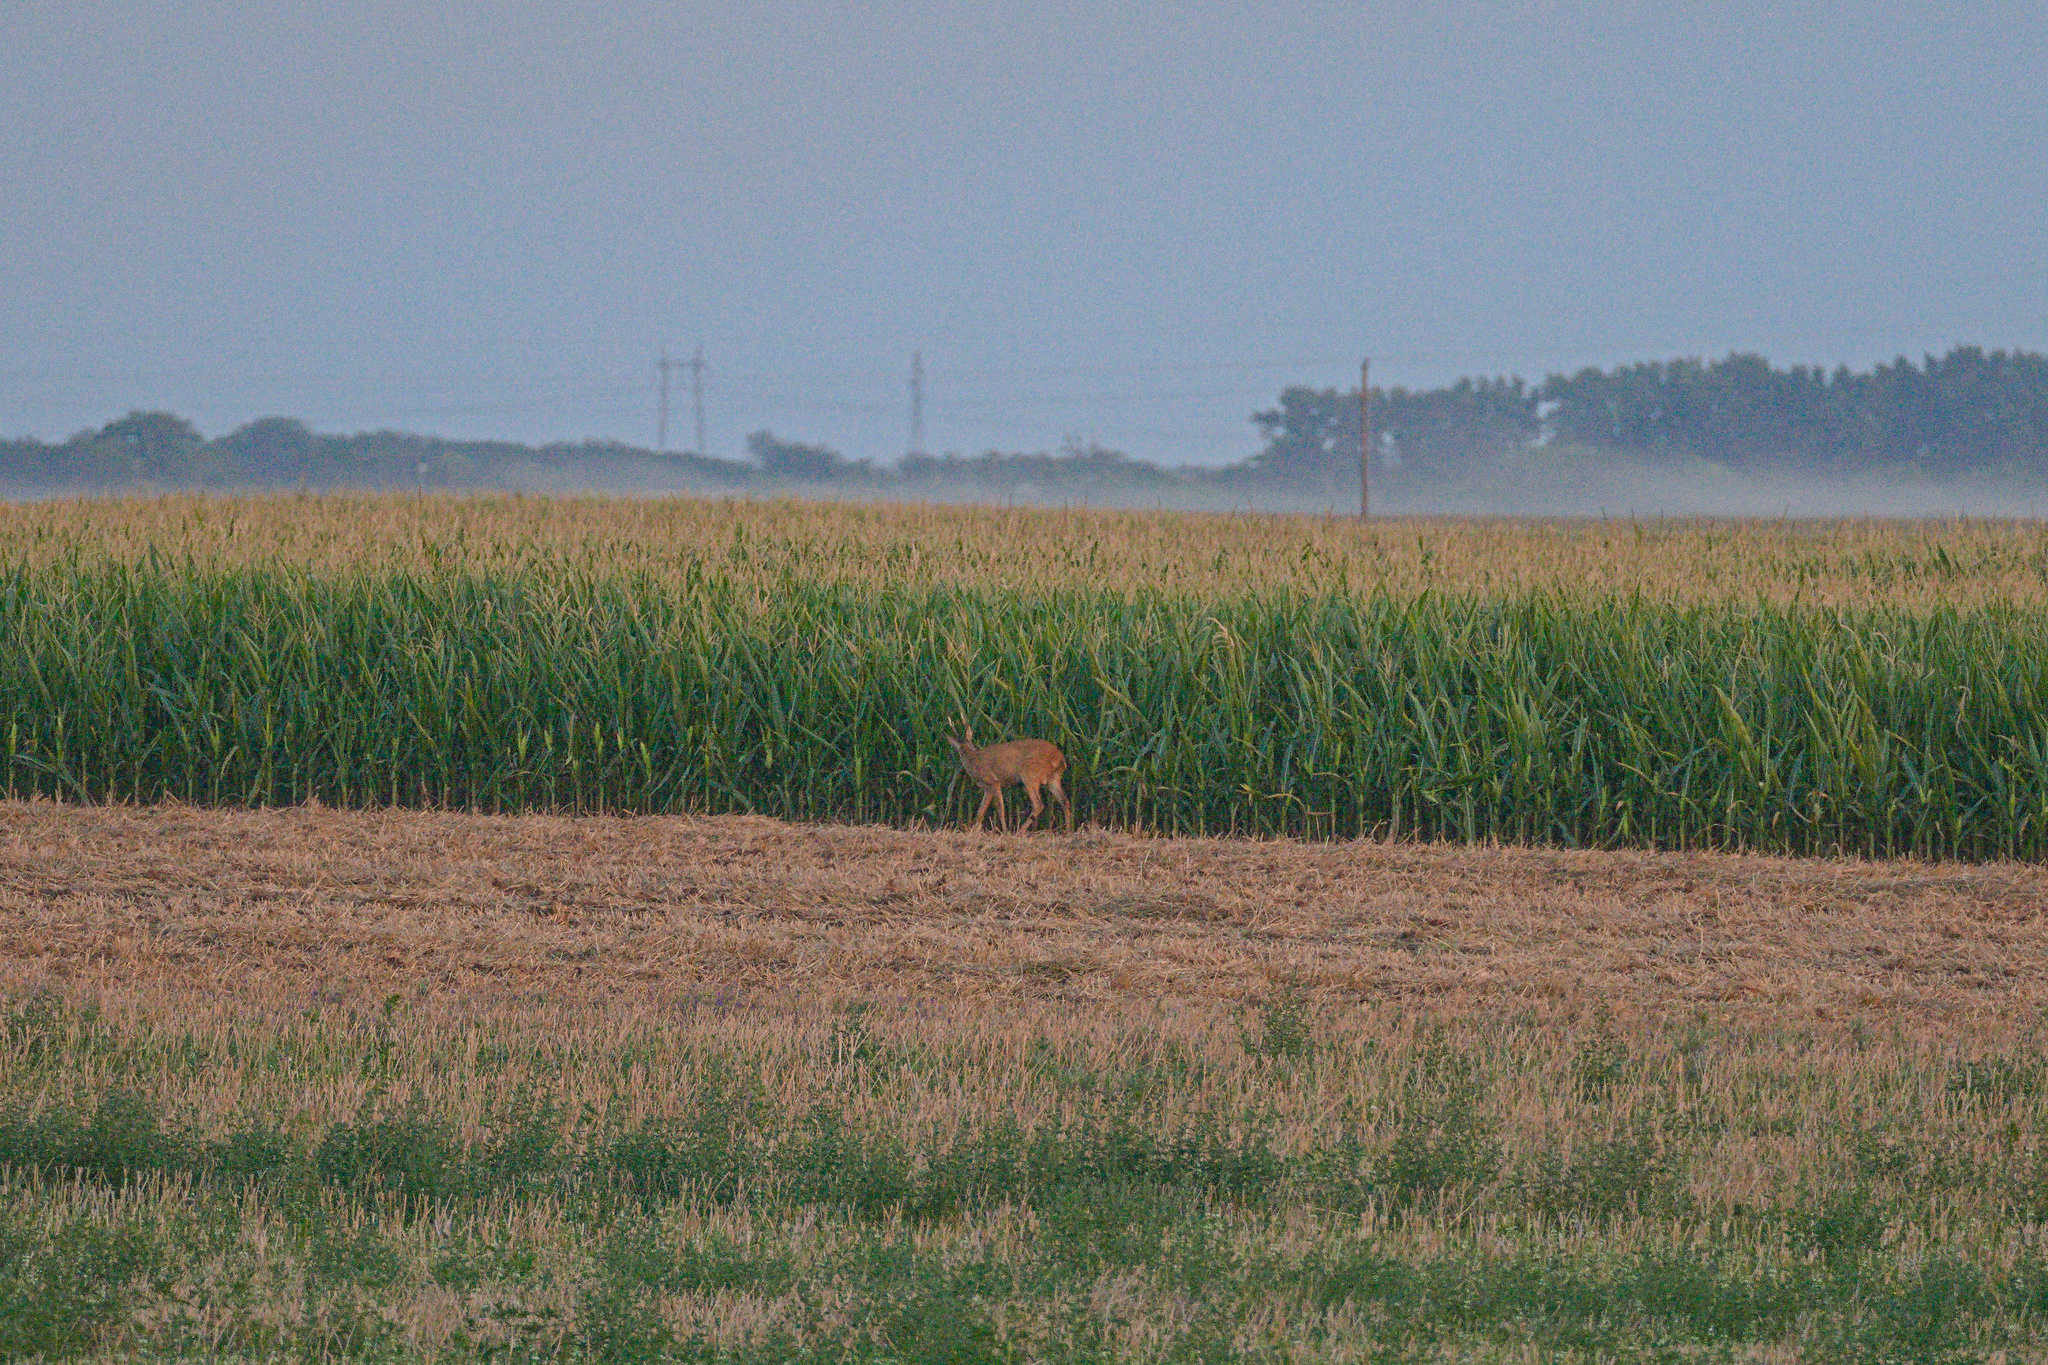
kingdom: Animalia
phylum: Chordata
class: Mammalia
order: Artiodactyla
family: Cervidae
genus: Capreolus
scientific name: Capreolus capreolus
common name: Western roe deer
